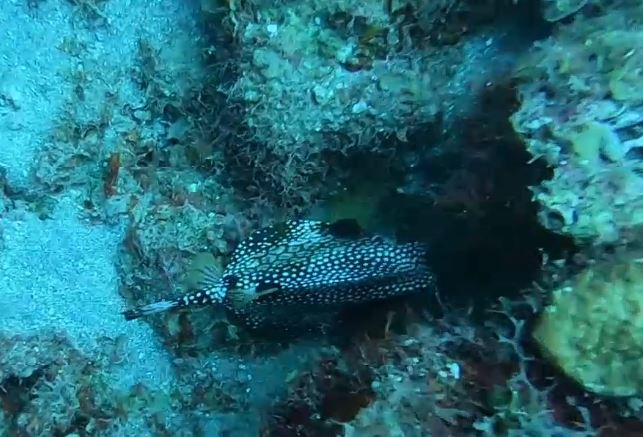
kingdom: Animalia
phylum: Chordata
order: Tetraodontiformes
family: Ostraciidae
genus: Lactophrys
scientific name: Lactophrys triqueter
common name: Smooth trunkfish
